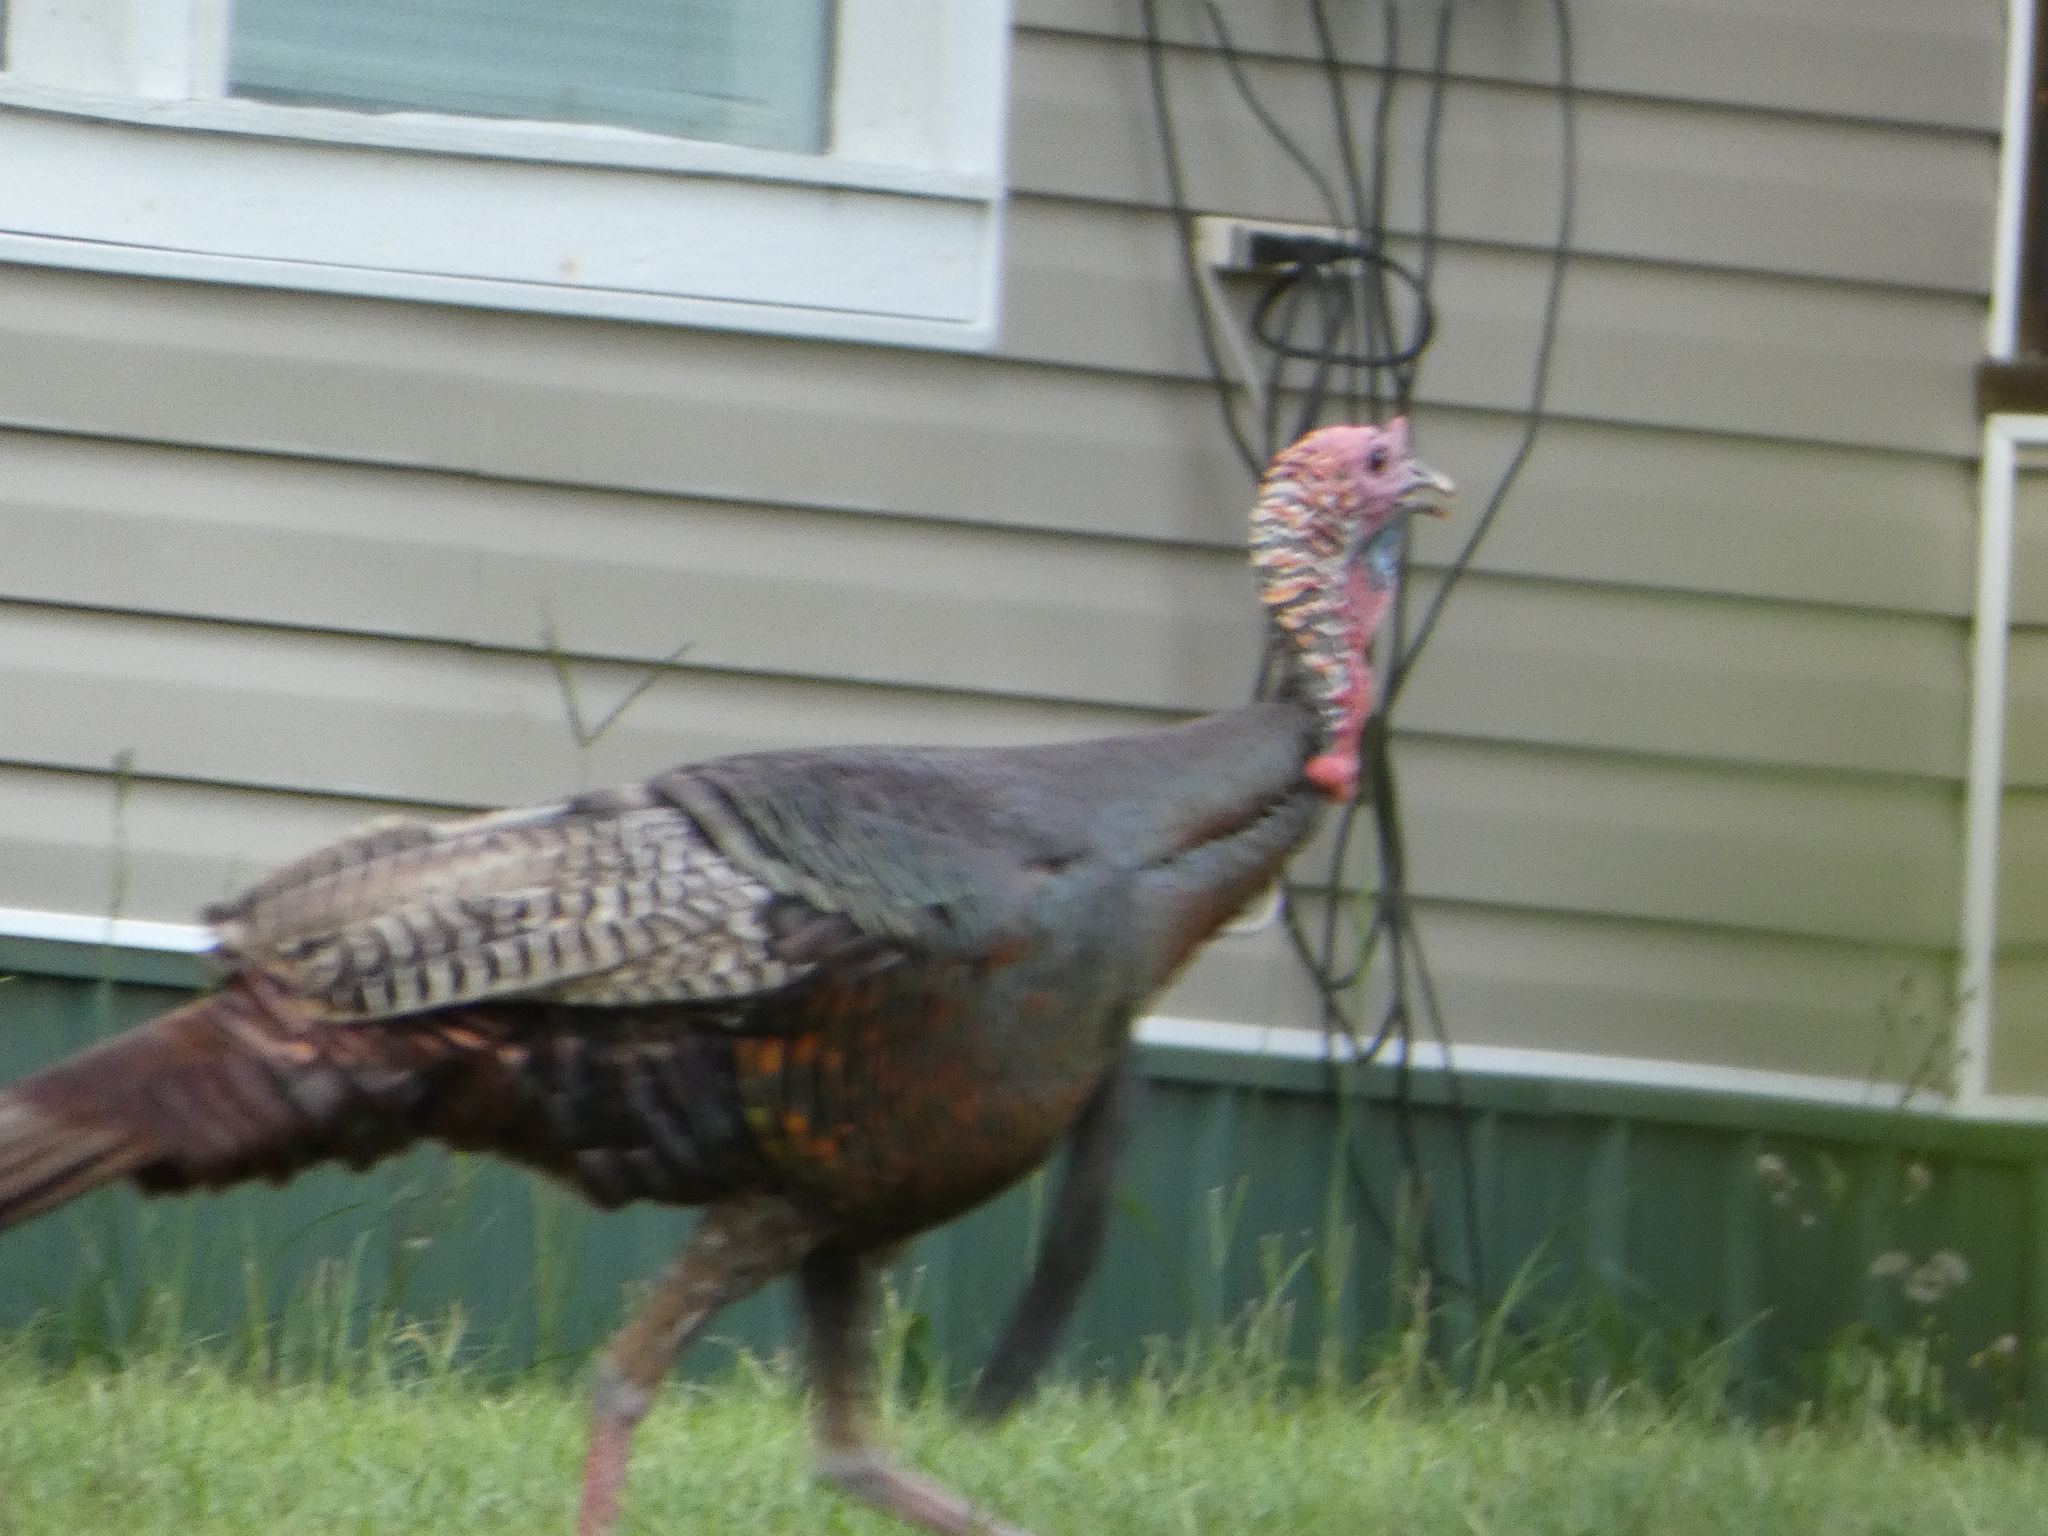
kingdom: Animalia
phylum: Chordata
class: Aves
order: Galliformes
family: Phasianidae
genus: Meleagris
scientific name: Meleagris gallopavo
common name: Wild turkey
